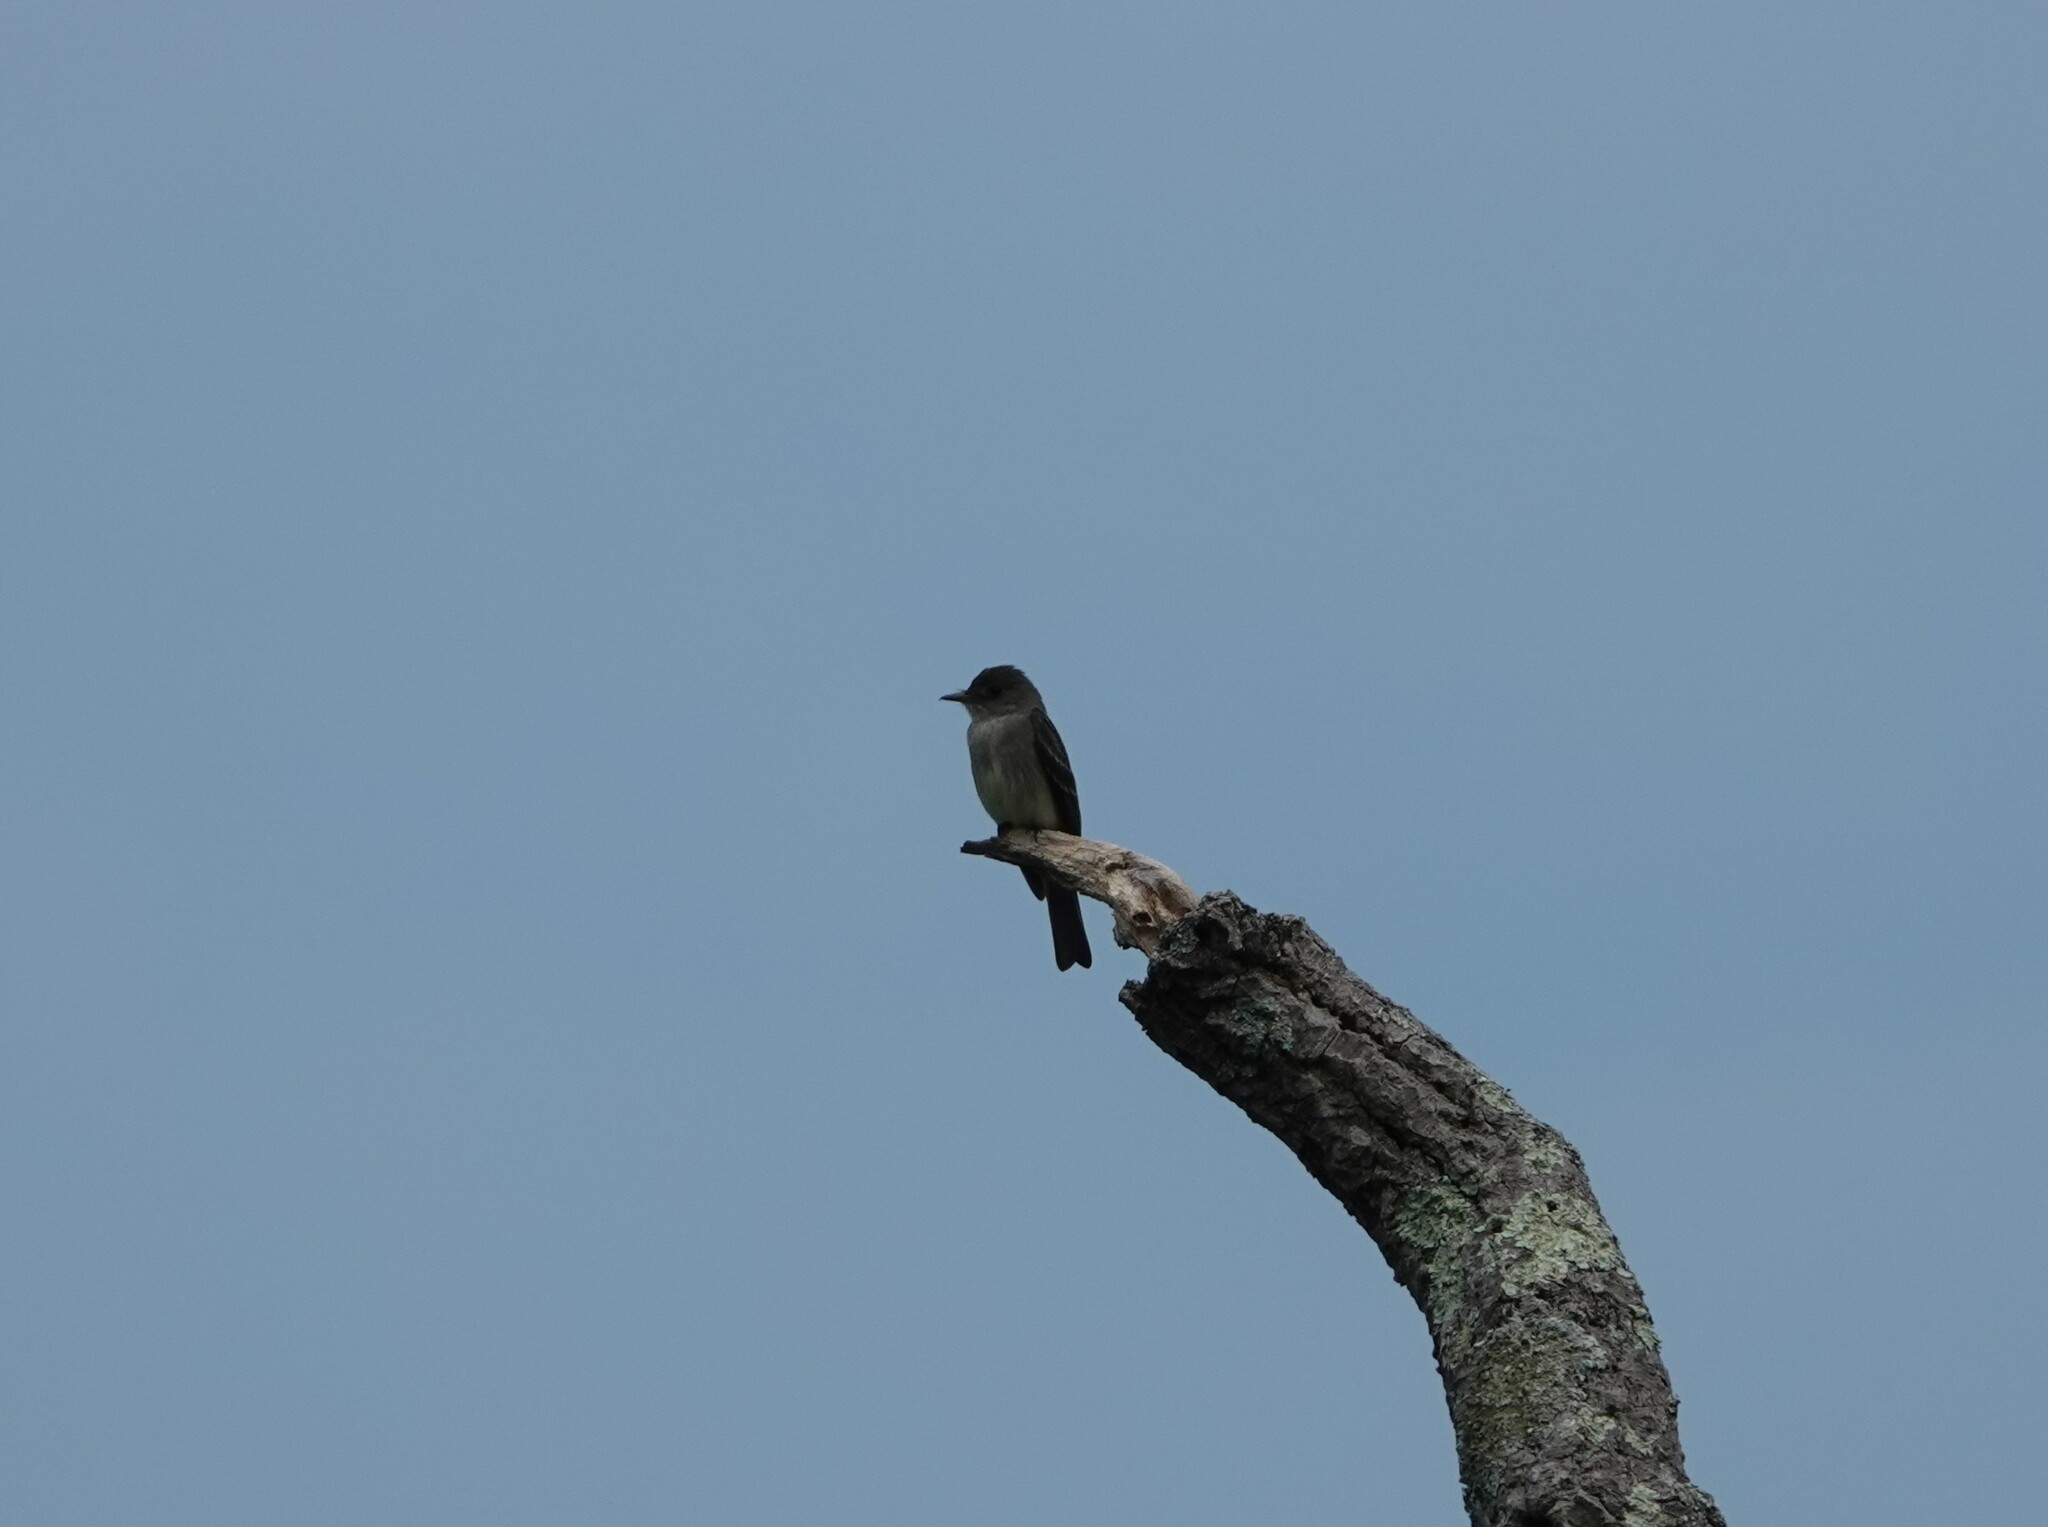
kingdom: Animalia
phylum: Chordata
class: Aves
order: Passeriformes
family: Tyrannidae
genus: Contopus
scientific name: Contopus virens
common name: Eastern wood-pewee
